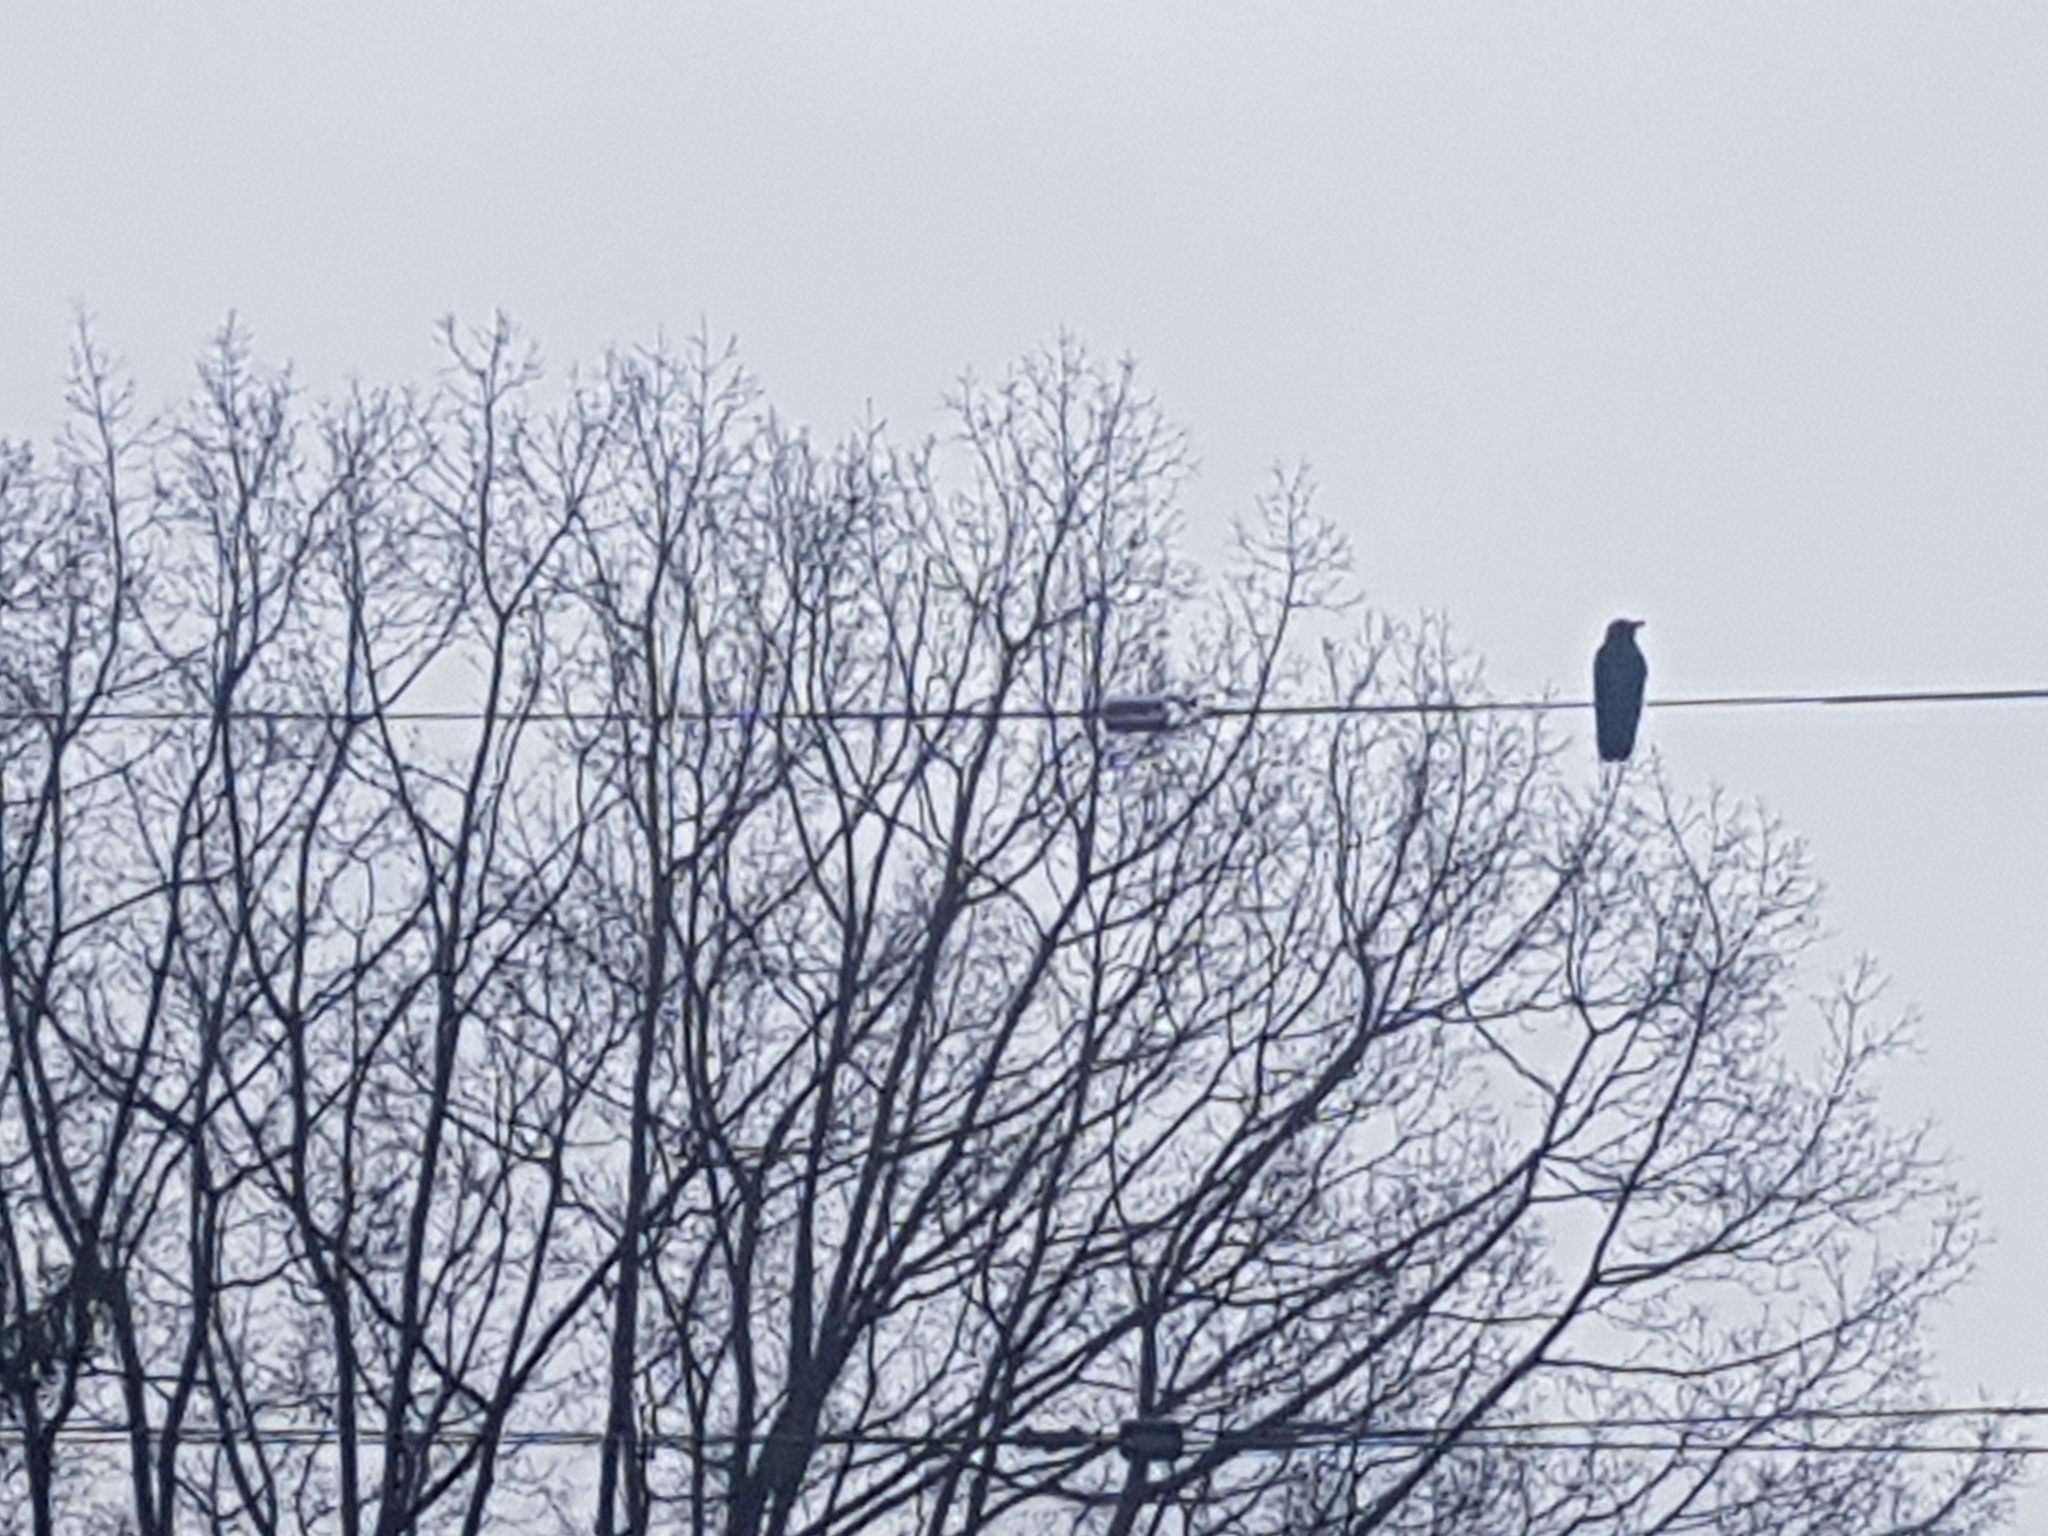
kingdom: Animalia
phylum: Chordata
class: Aves
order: Passeriformes
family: Corvidae
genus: Corvus
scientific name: Corvus brachyrhynchos
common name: American crow
